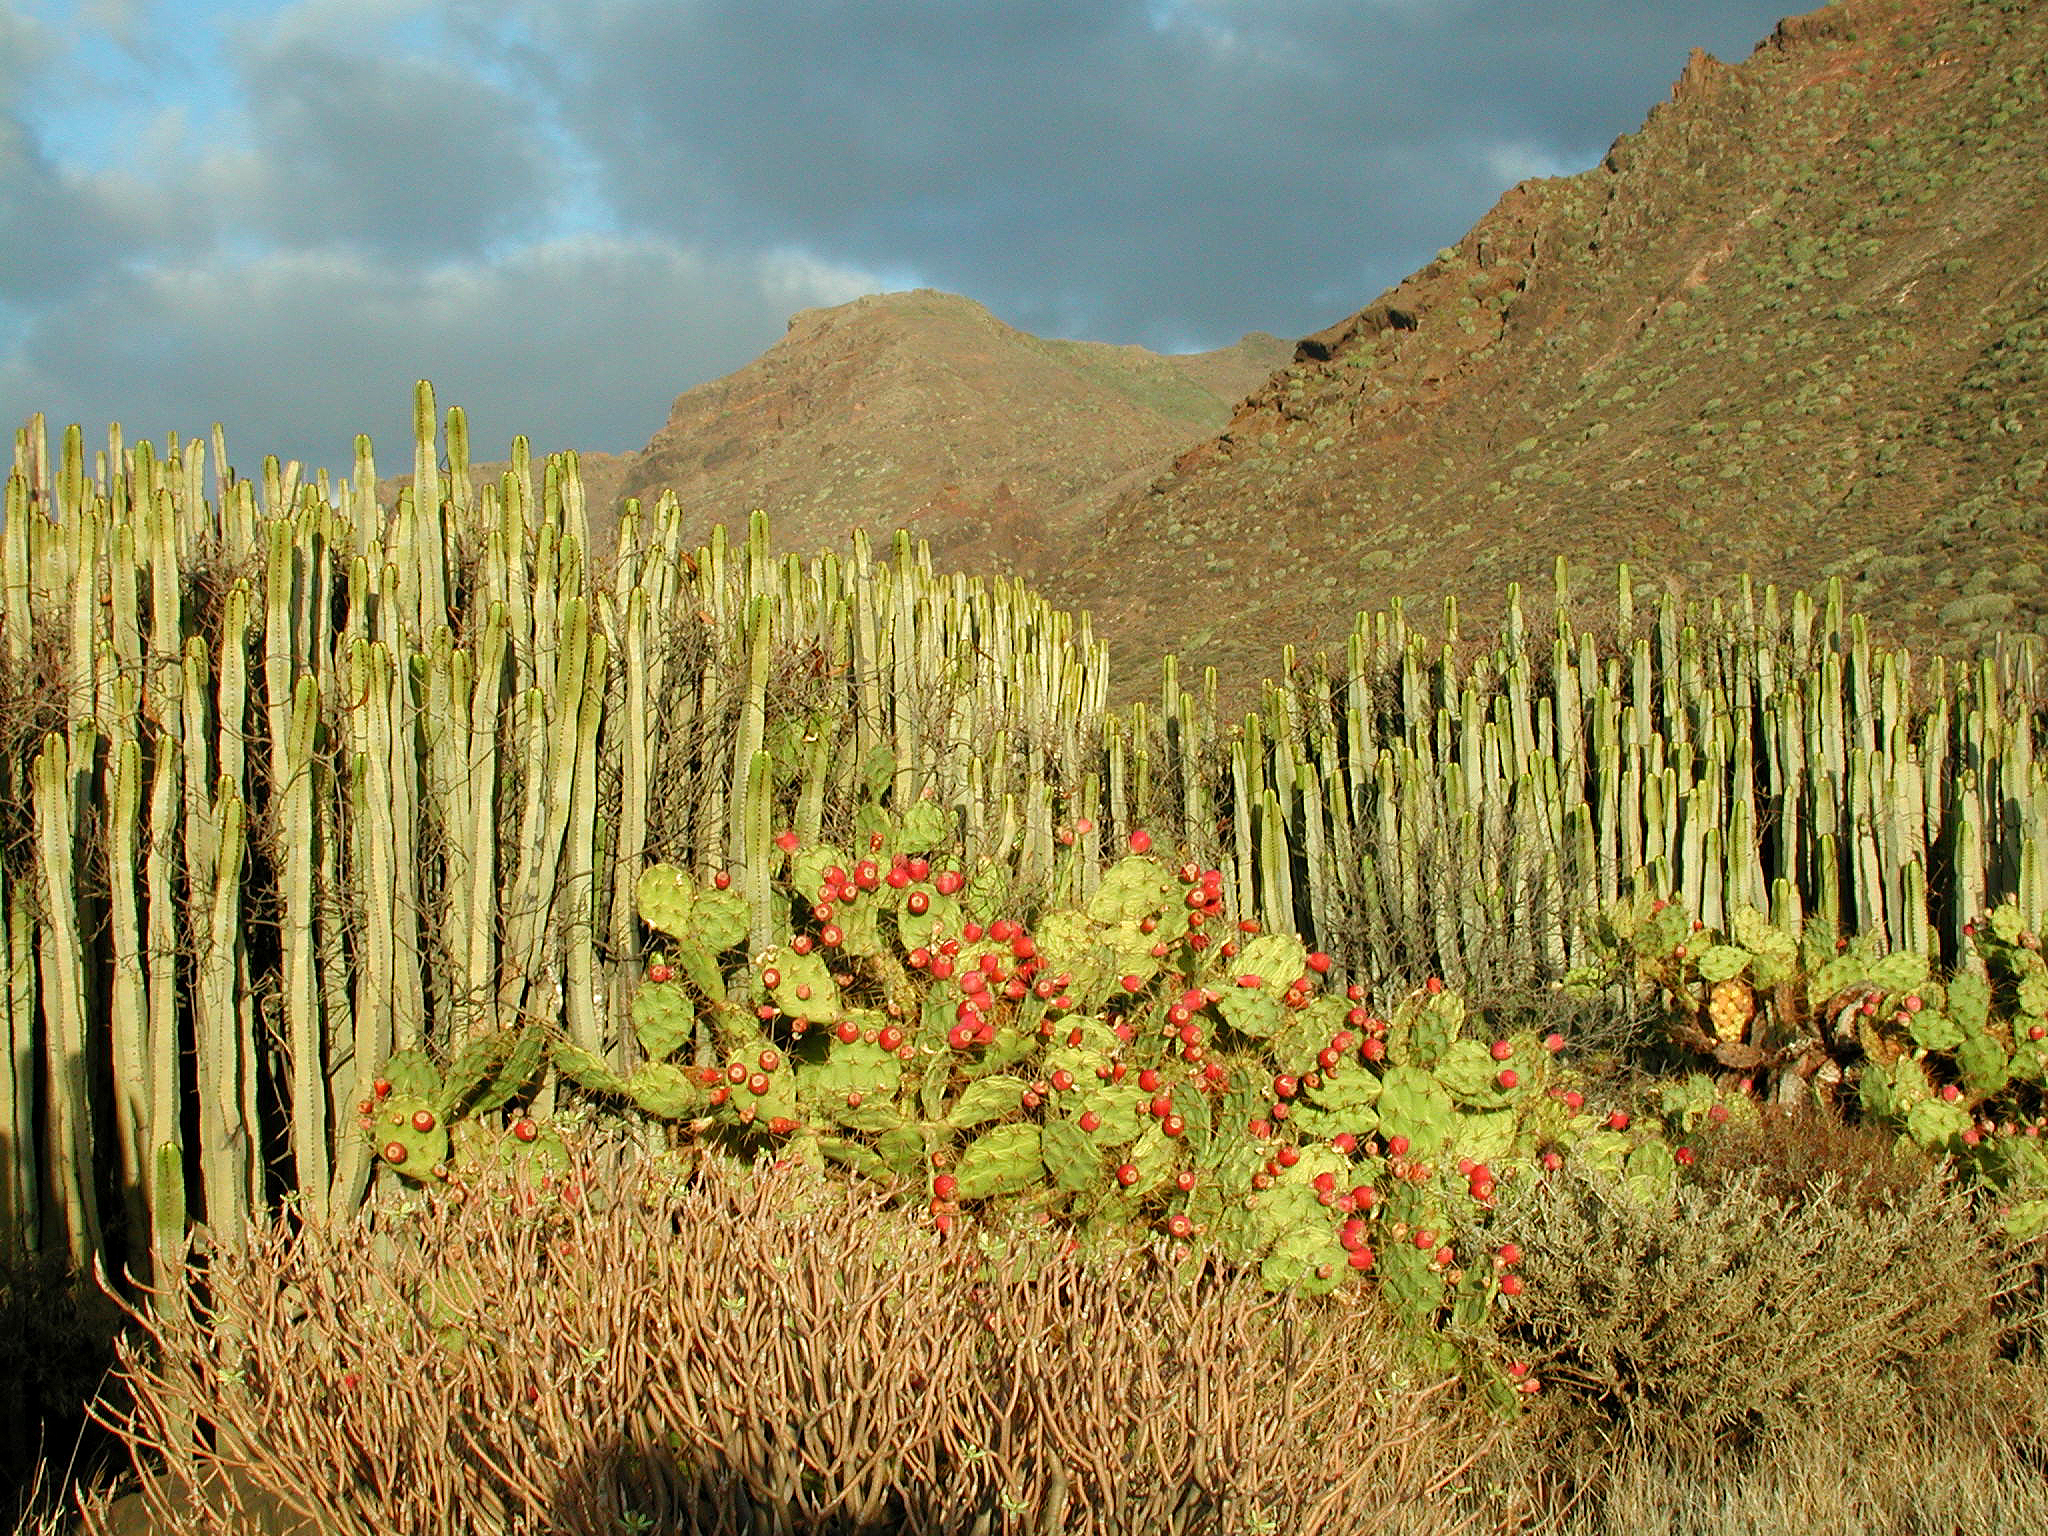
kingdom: Plantae
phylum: Tracheophyta
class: Magnoliopsida
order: Malpighiales
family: Euphorbiaceae
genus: Euphorbia
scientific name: Euphorbia canariensis
